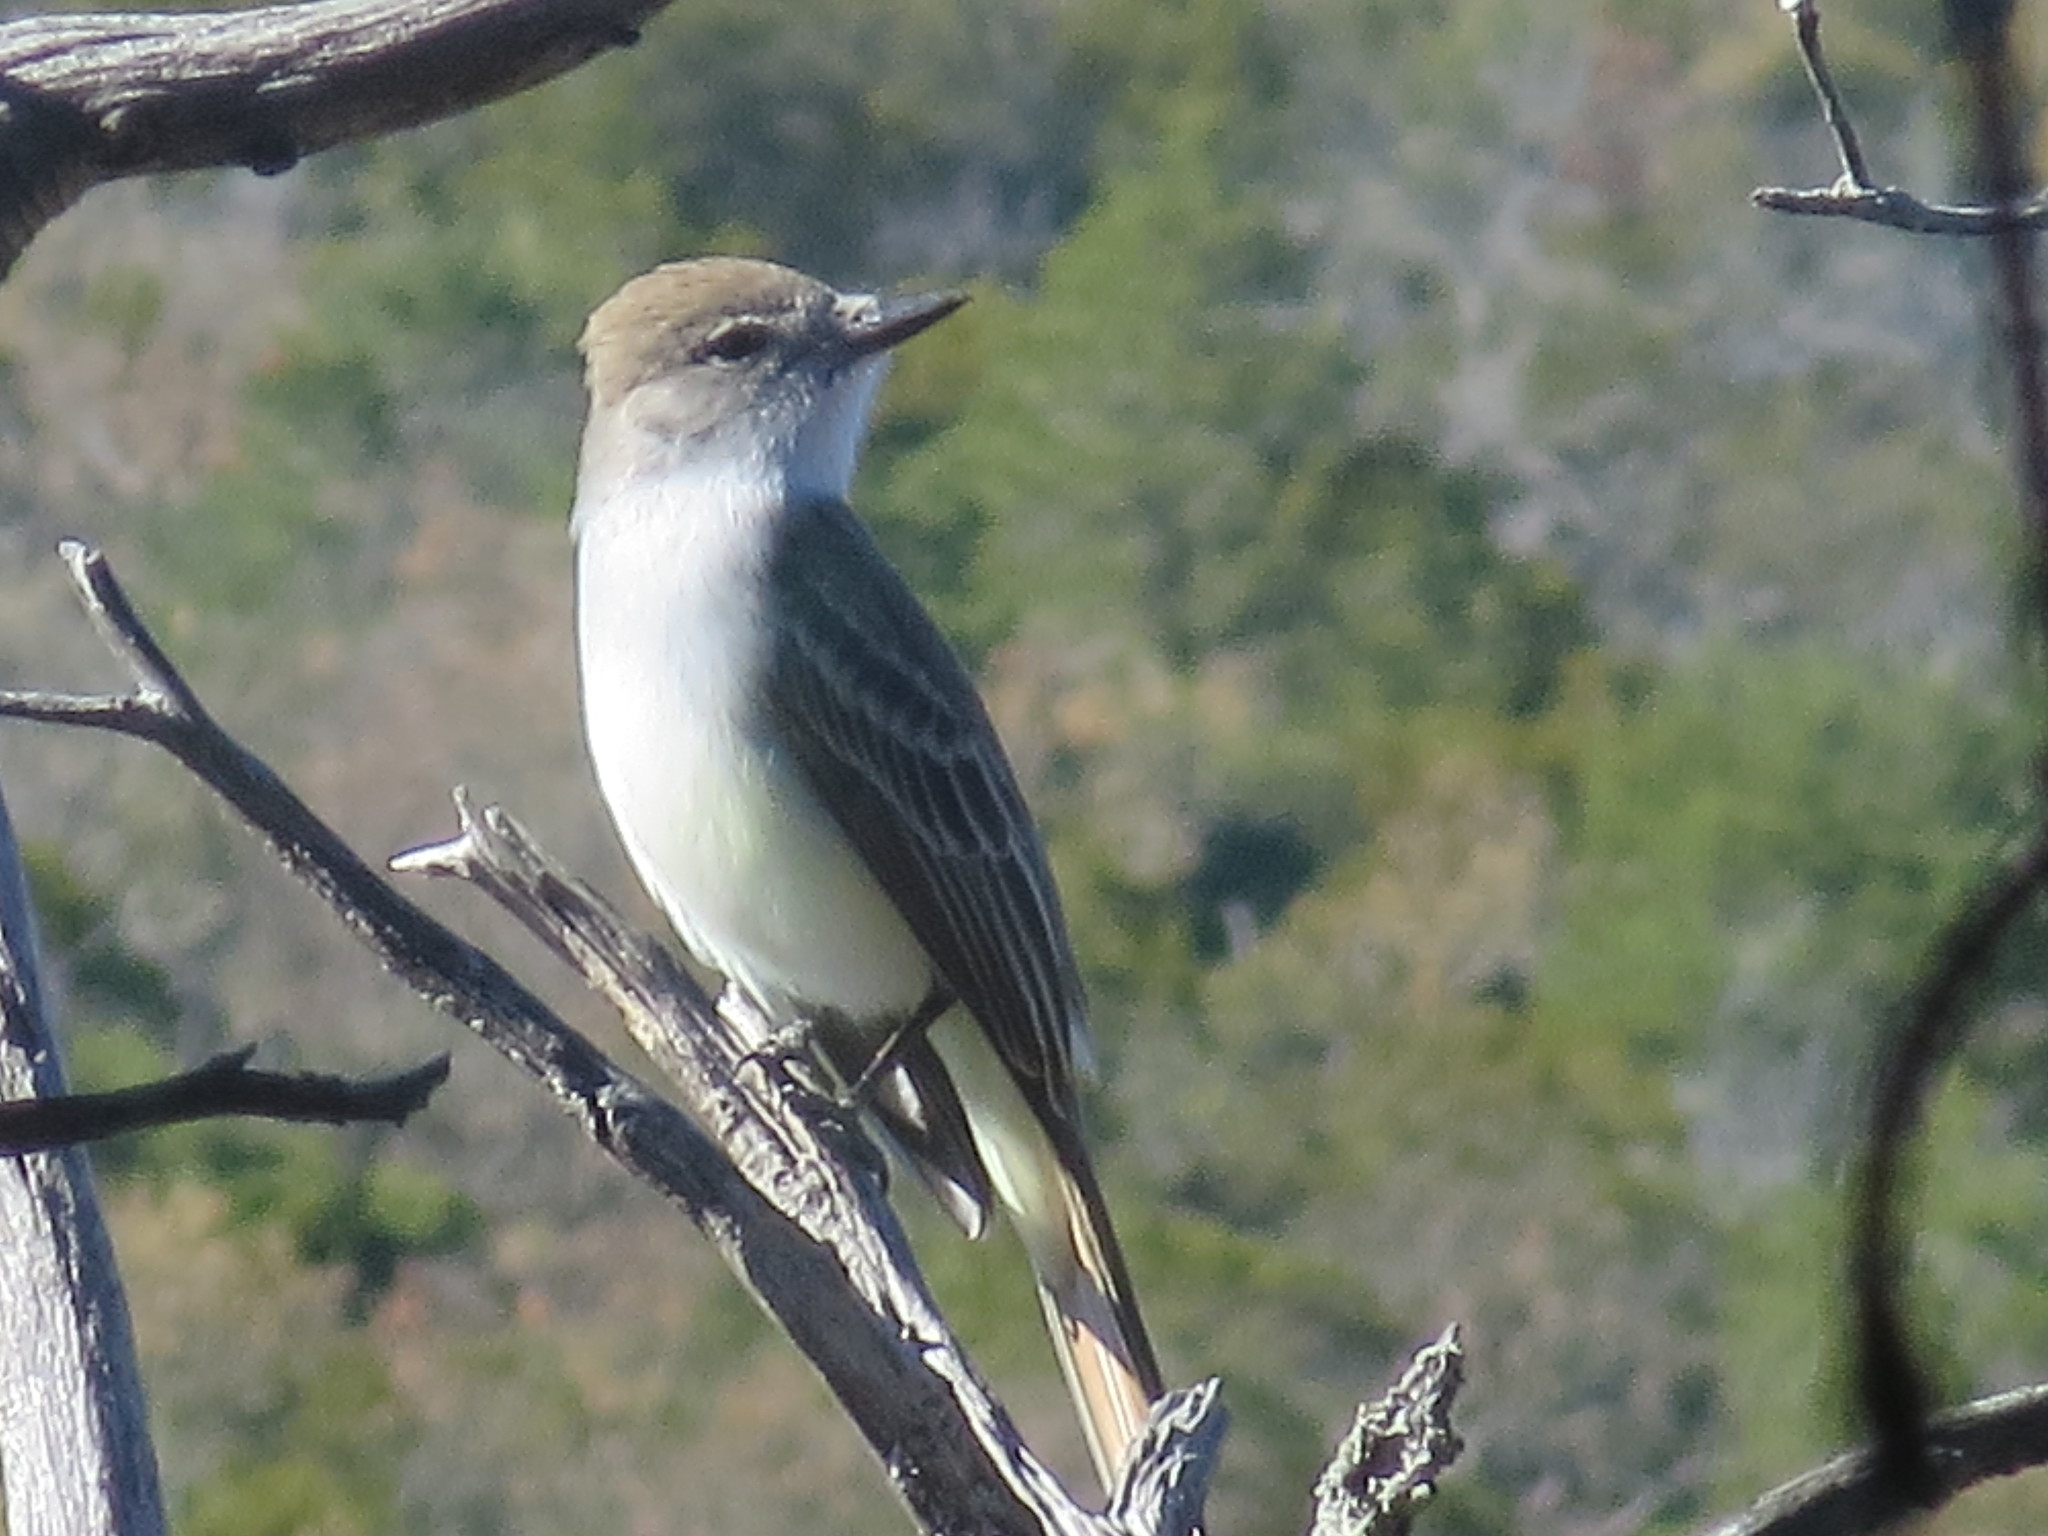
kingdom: Animalia
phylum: Chordata
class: Aves
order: Passeriformes
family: Tyrannidae
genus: Myiarchus
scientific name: Myiarchus cinerascens
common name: Ash-throated flycatcher
